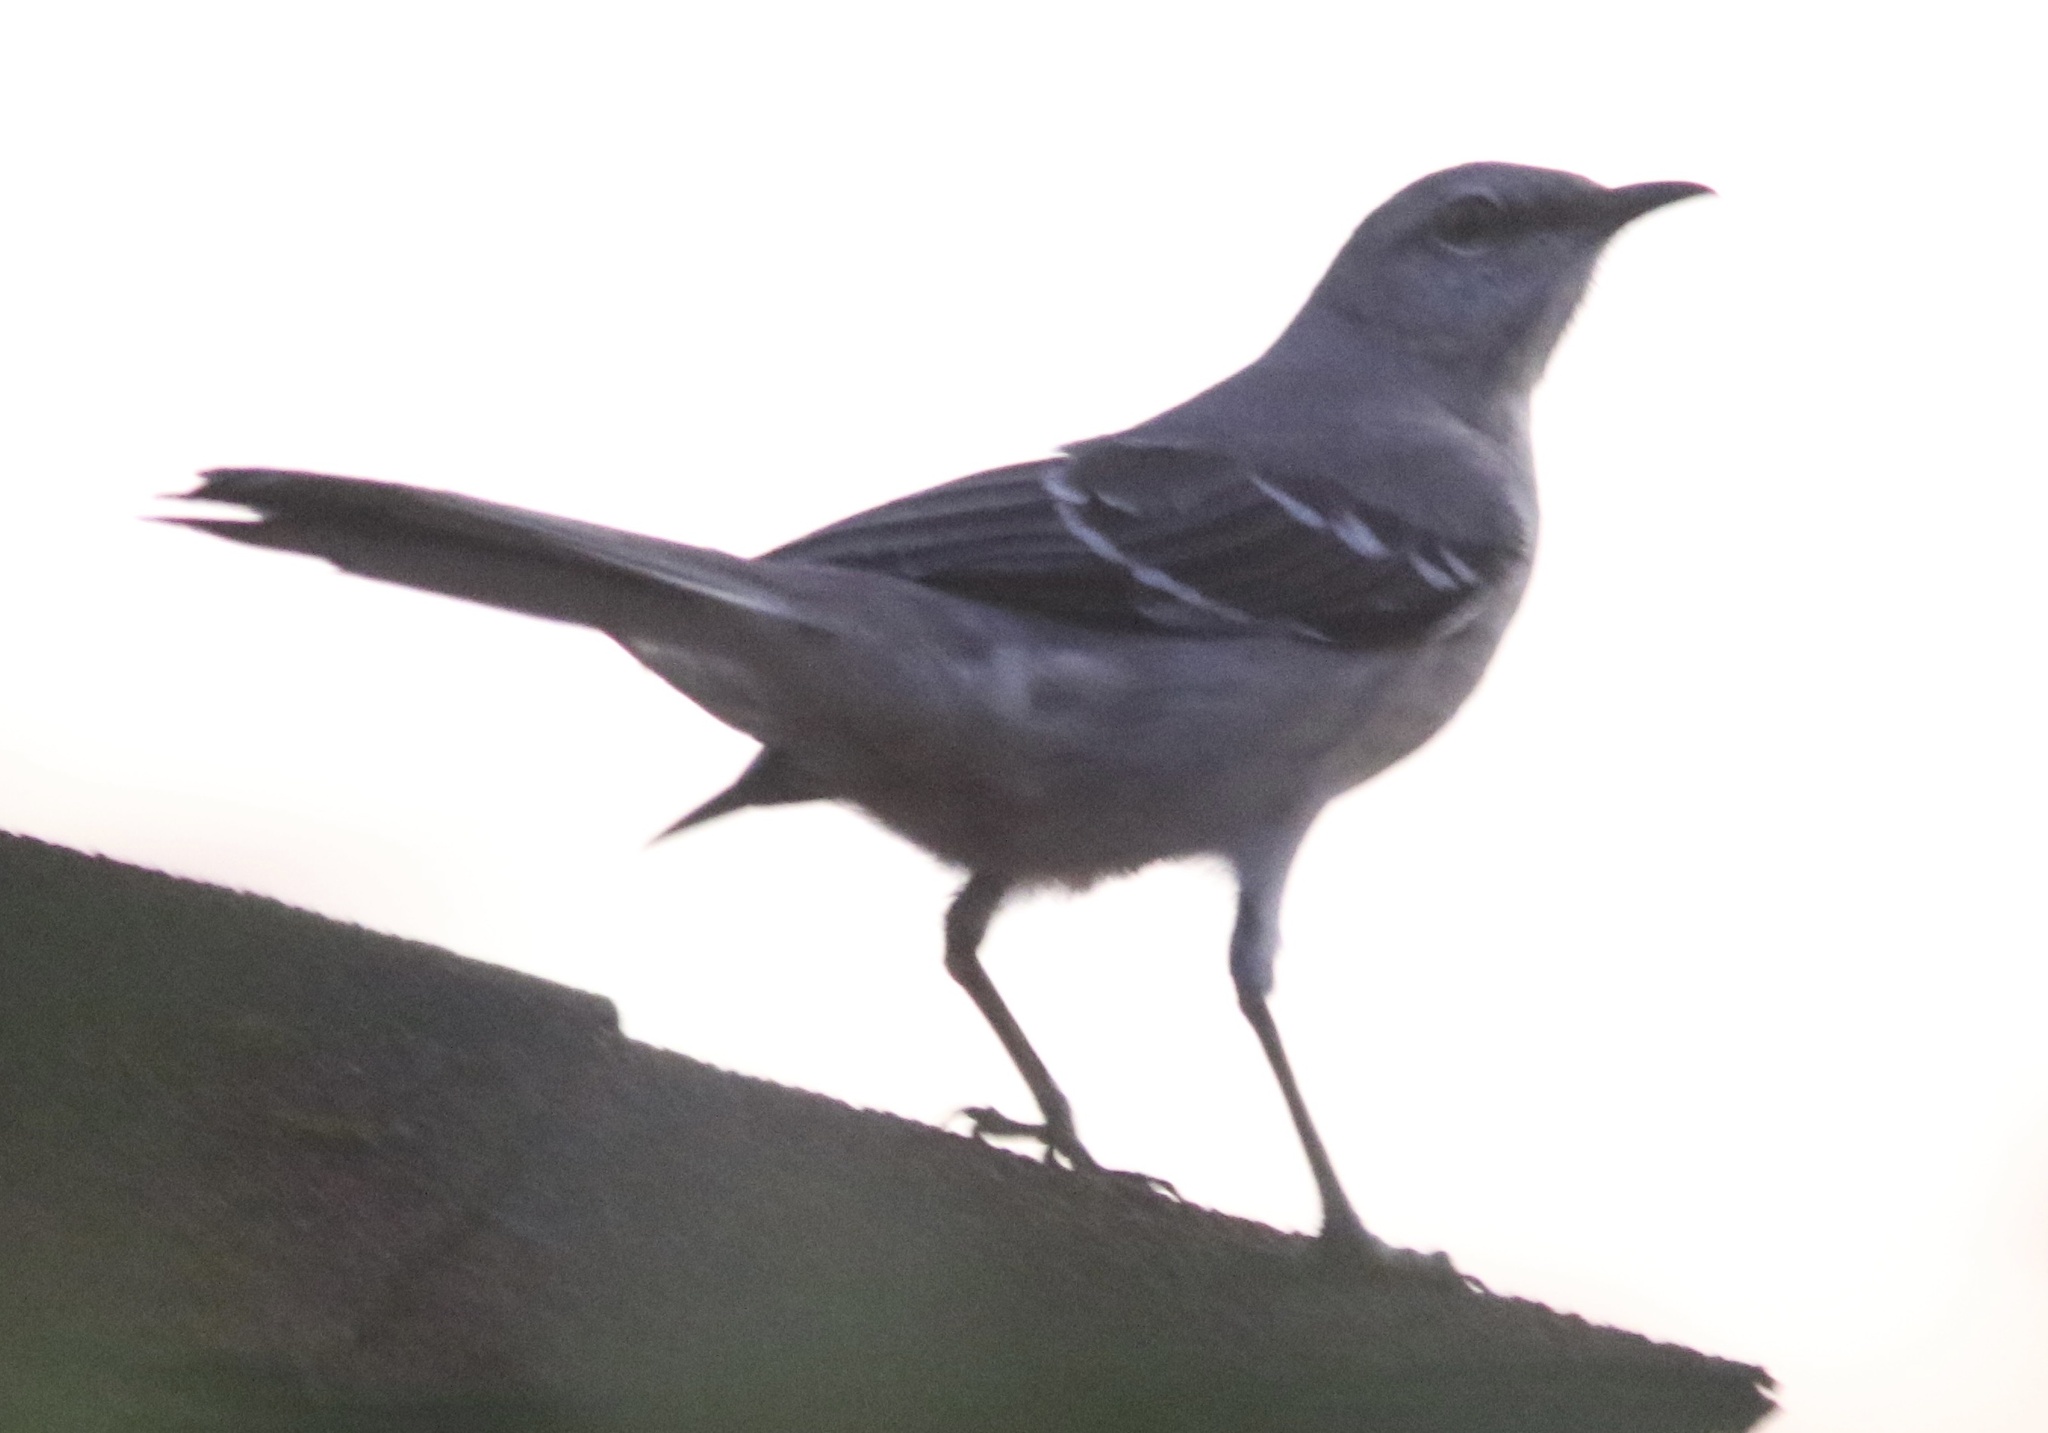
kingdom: Animalia
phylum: Chordata
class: Aves
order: Passeriformes
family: Mimidae
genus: Mimus
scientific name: Mimus polyglottos
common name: Northern mockingbird
